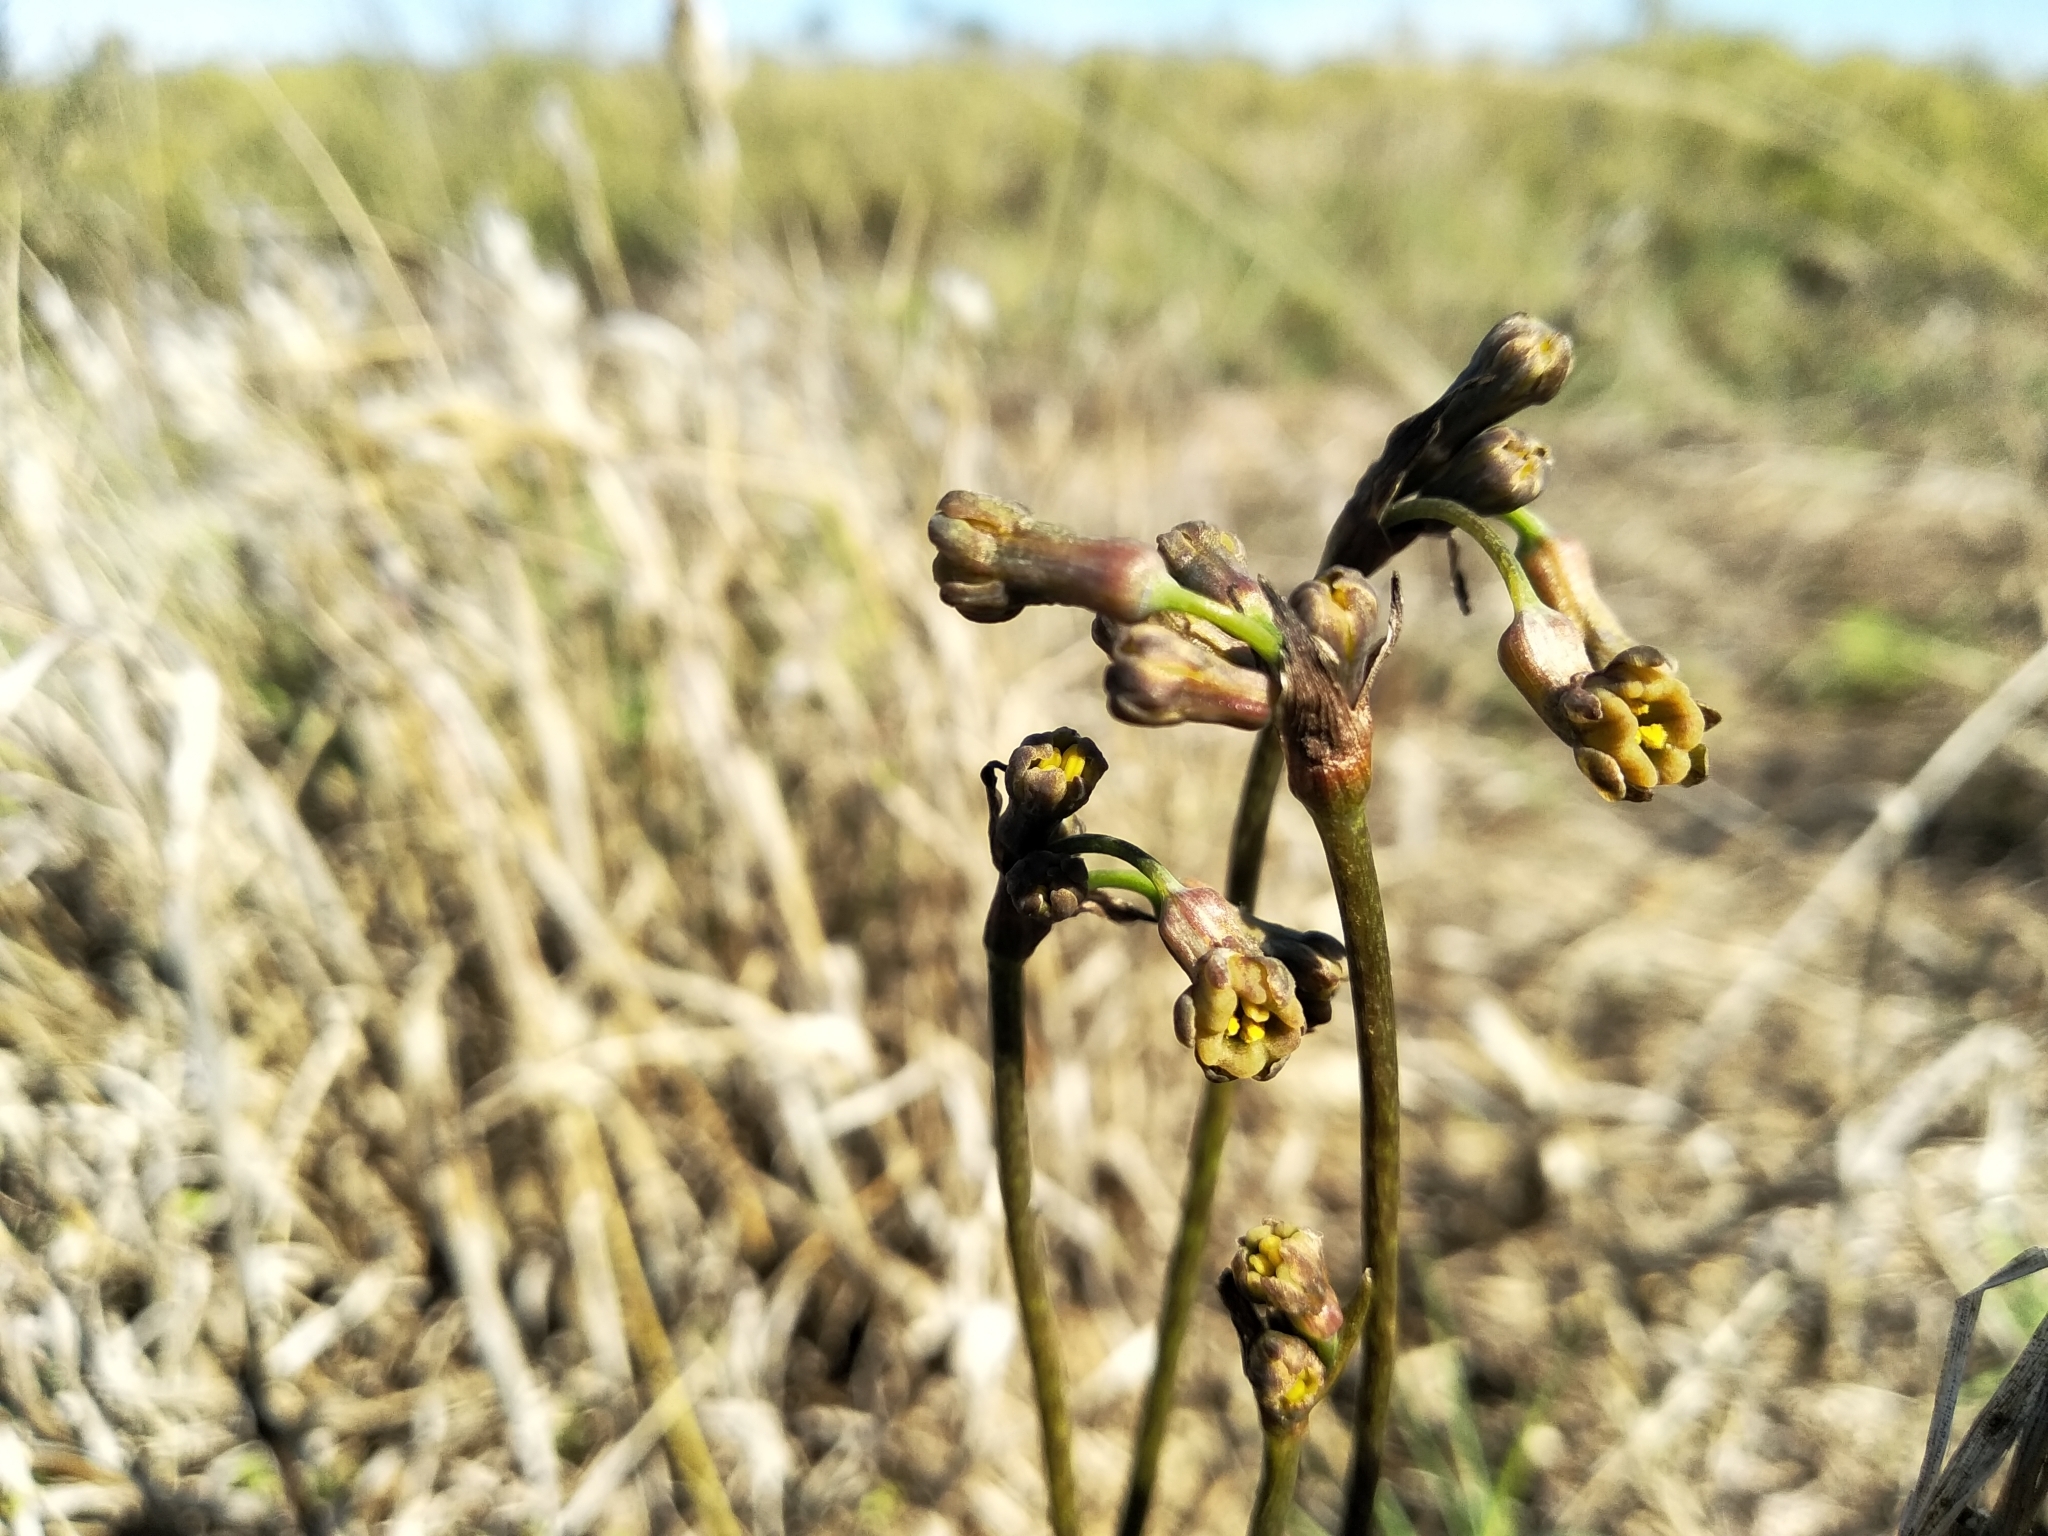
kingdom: Plantae
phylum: Tracheophyta
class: Liliopsida
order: Asparagales
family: Amaryllidaceae
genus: Tulbaghia
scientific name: Tulbaghia alliacea
